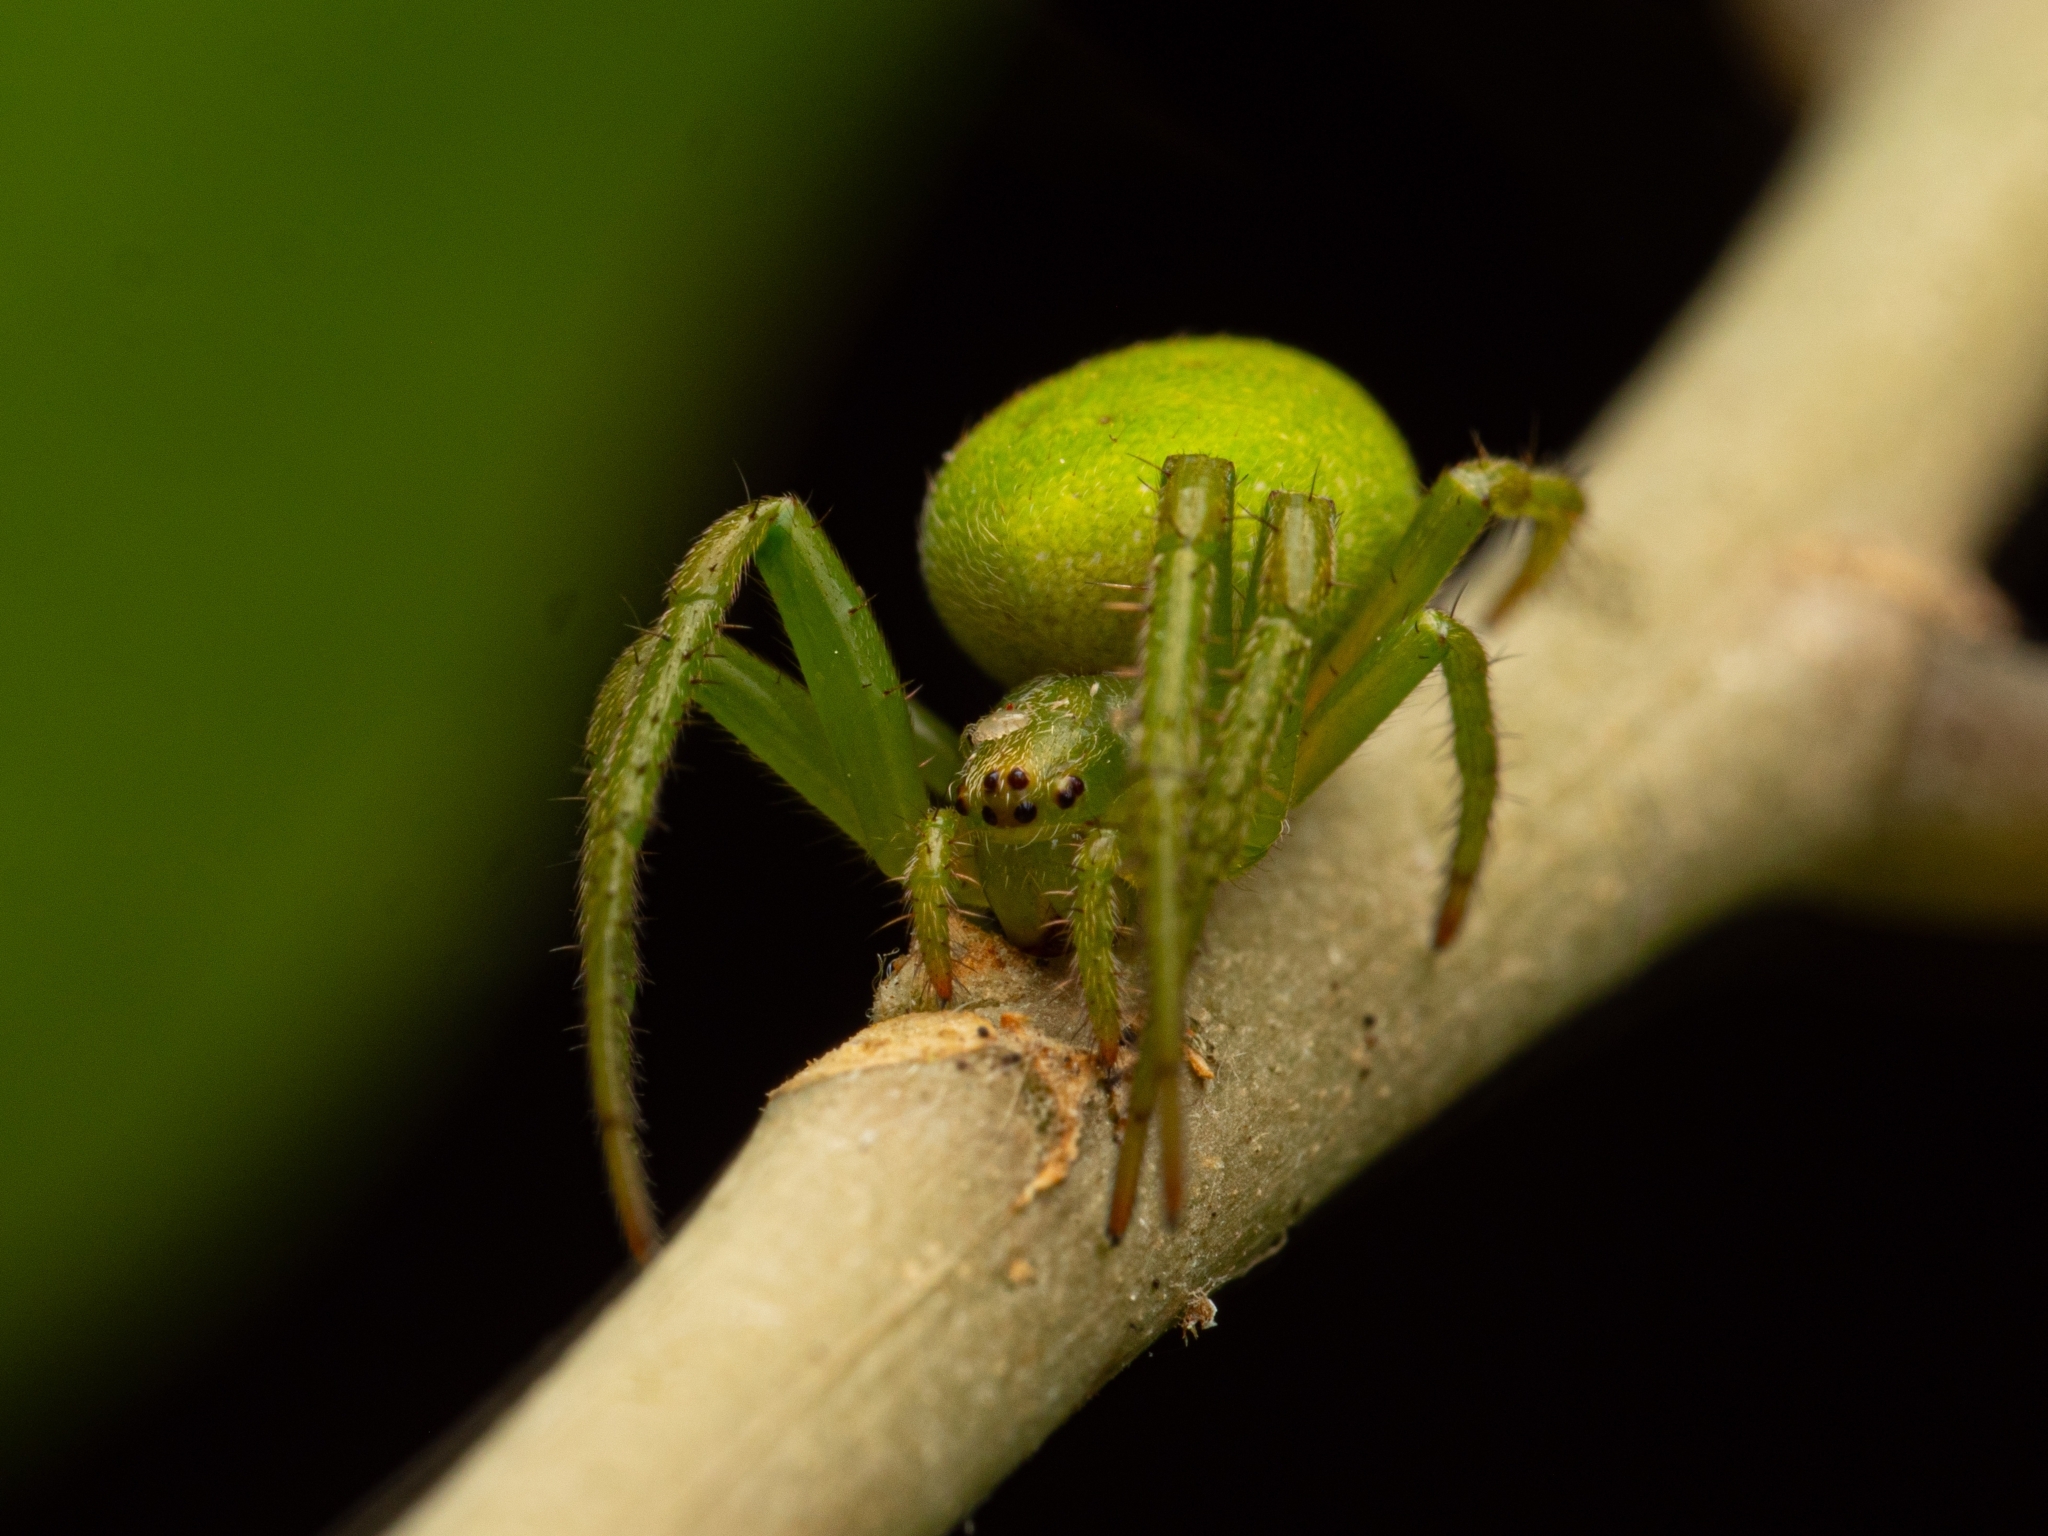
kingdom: Animalia
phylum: Arthropoda
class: Arachnida
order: Araneae
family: Araneidae
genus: Colaranea
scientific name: Colaranea viriditas
